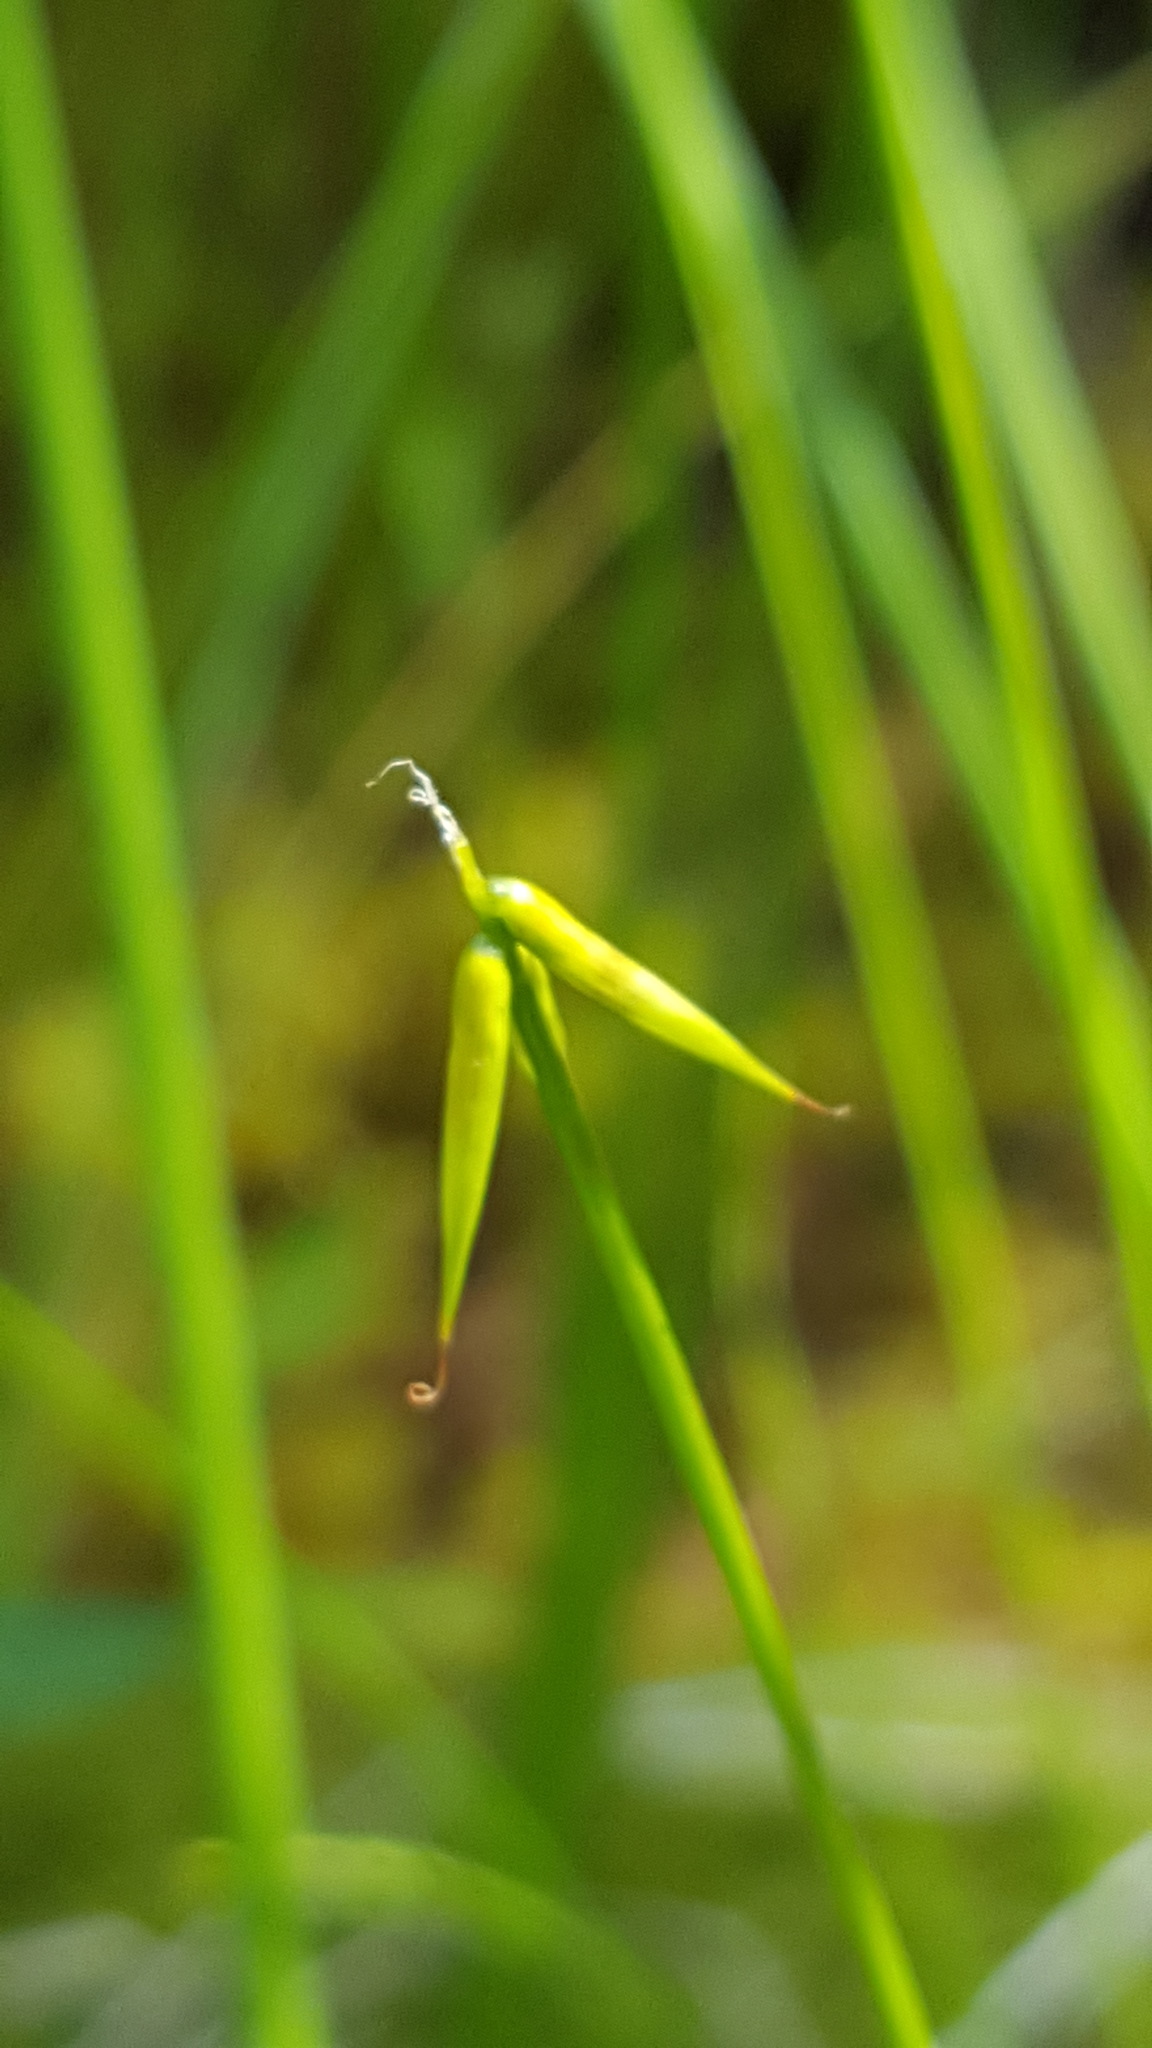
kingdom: Plantae
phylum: Tracheophyta
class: Liliopsida
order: Poales
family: Cyperaceae
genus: Carex
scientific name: Carex pauciflora
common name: Few-flowered sedge
